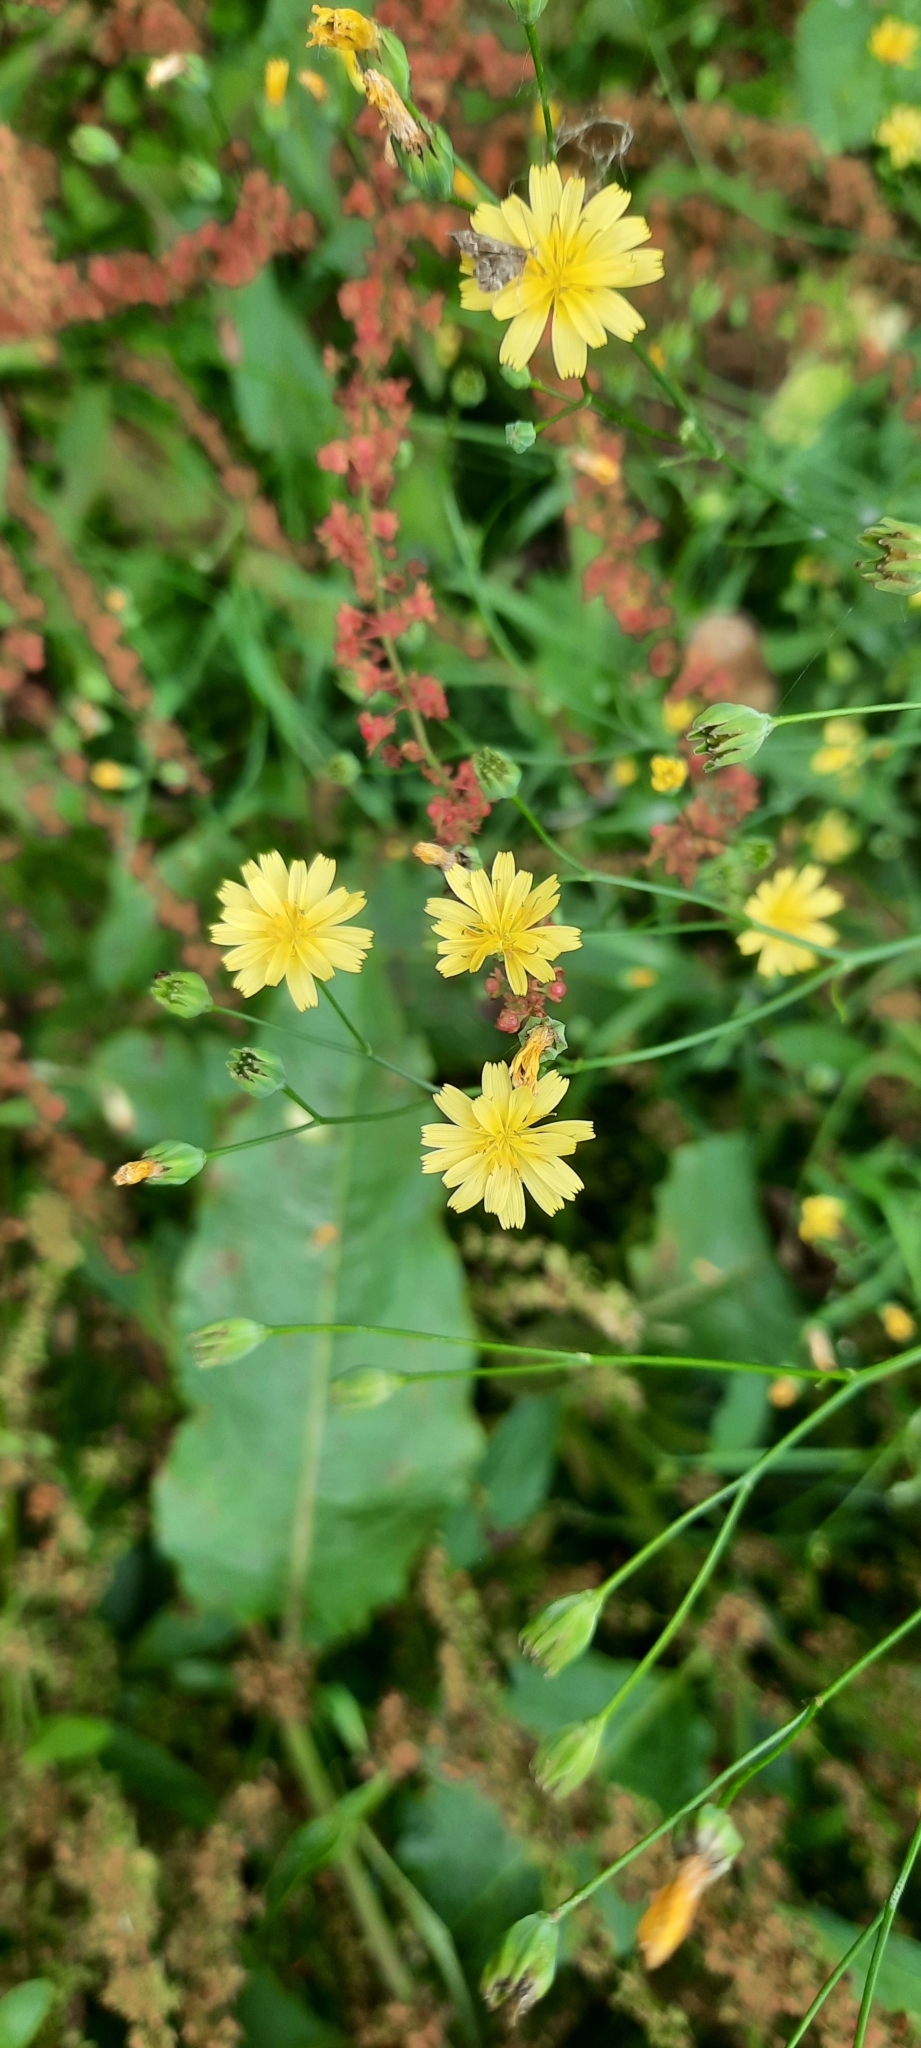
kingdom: Plantae
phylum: Tracheophyta
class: Magnoliopsida
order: Asterales
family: Asteraceae
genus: Lapsana
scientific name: Lapsana communis
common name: Nipplewort
